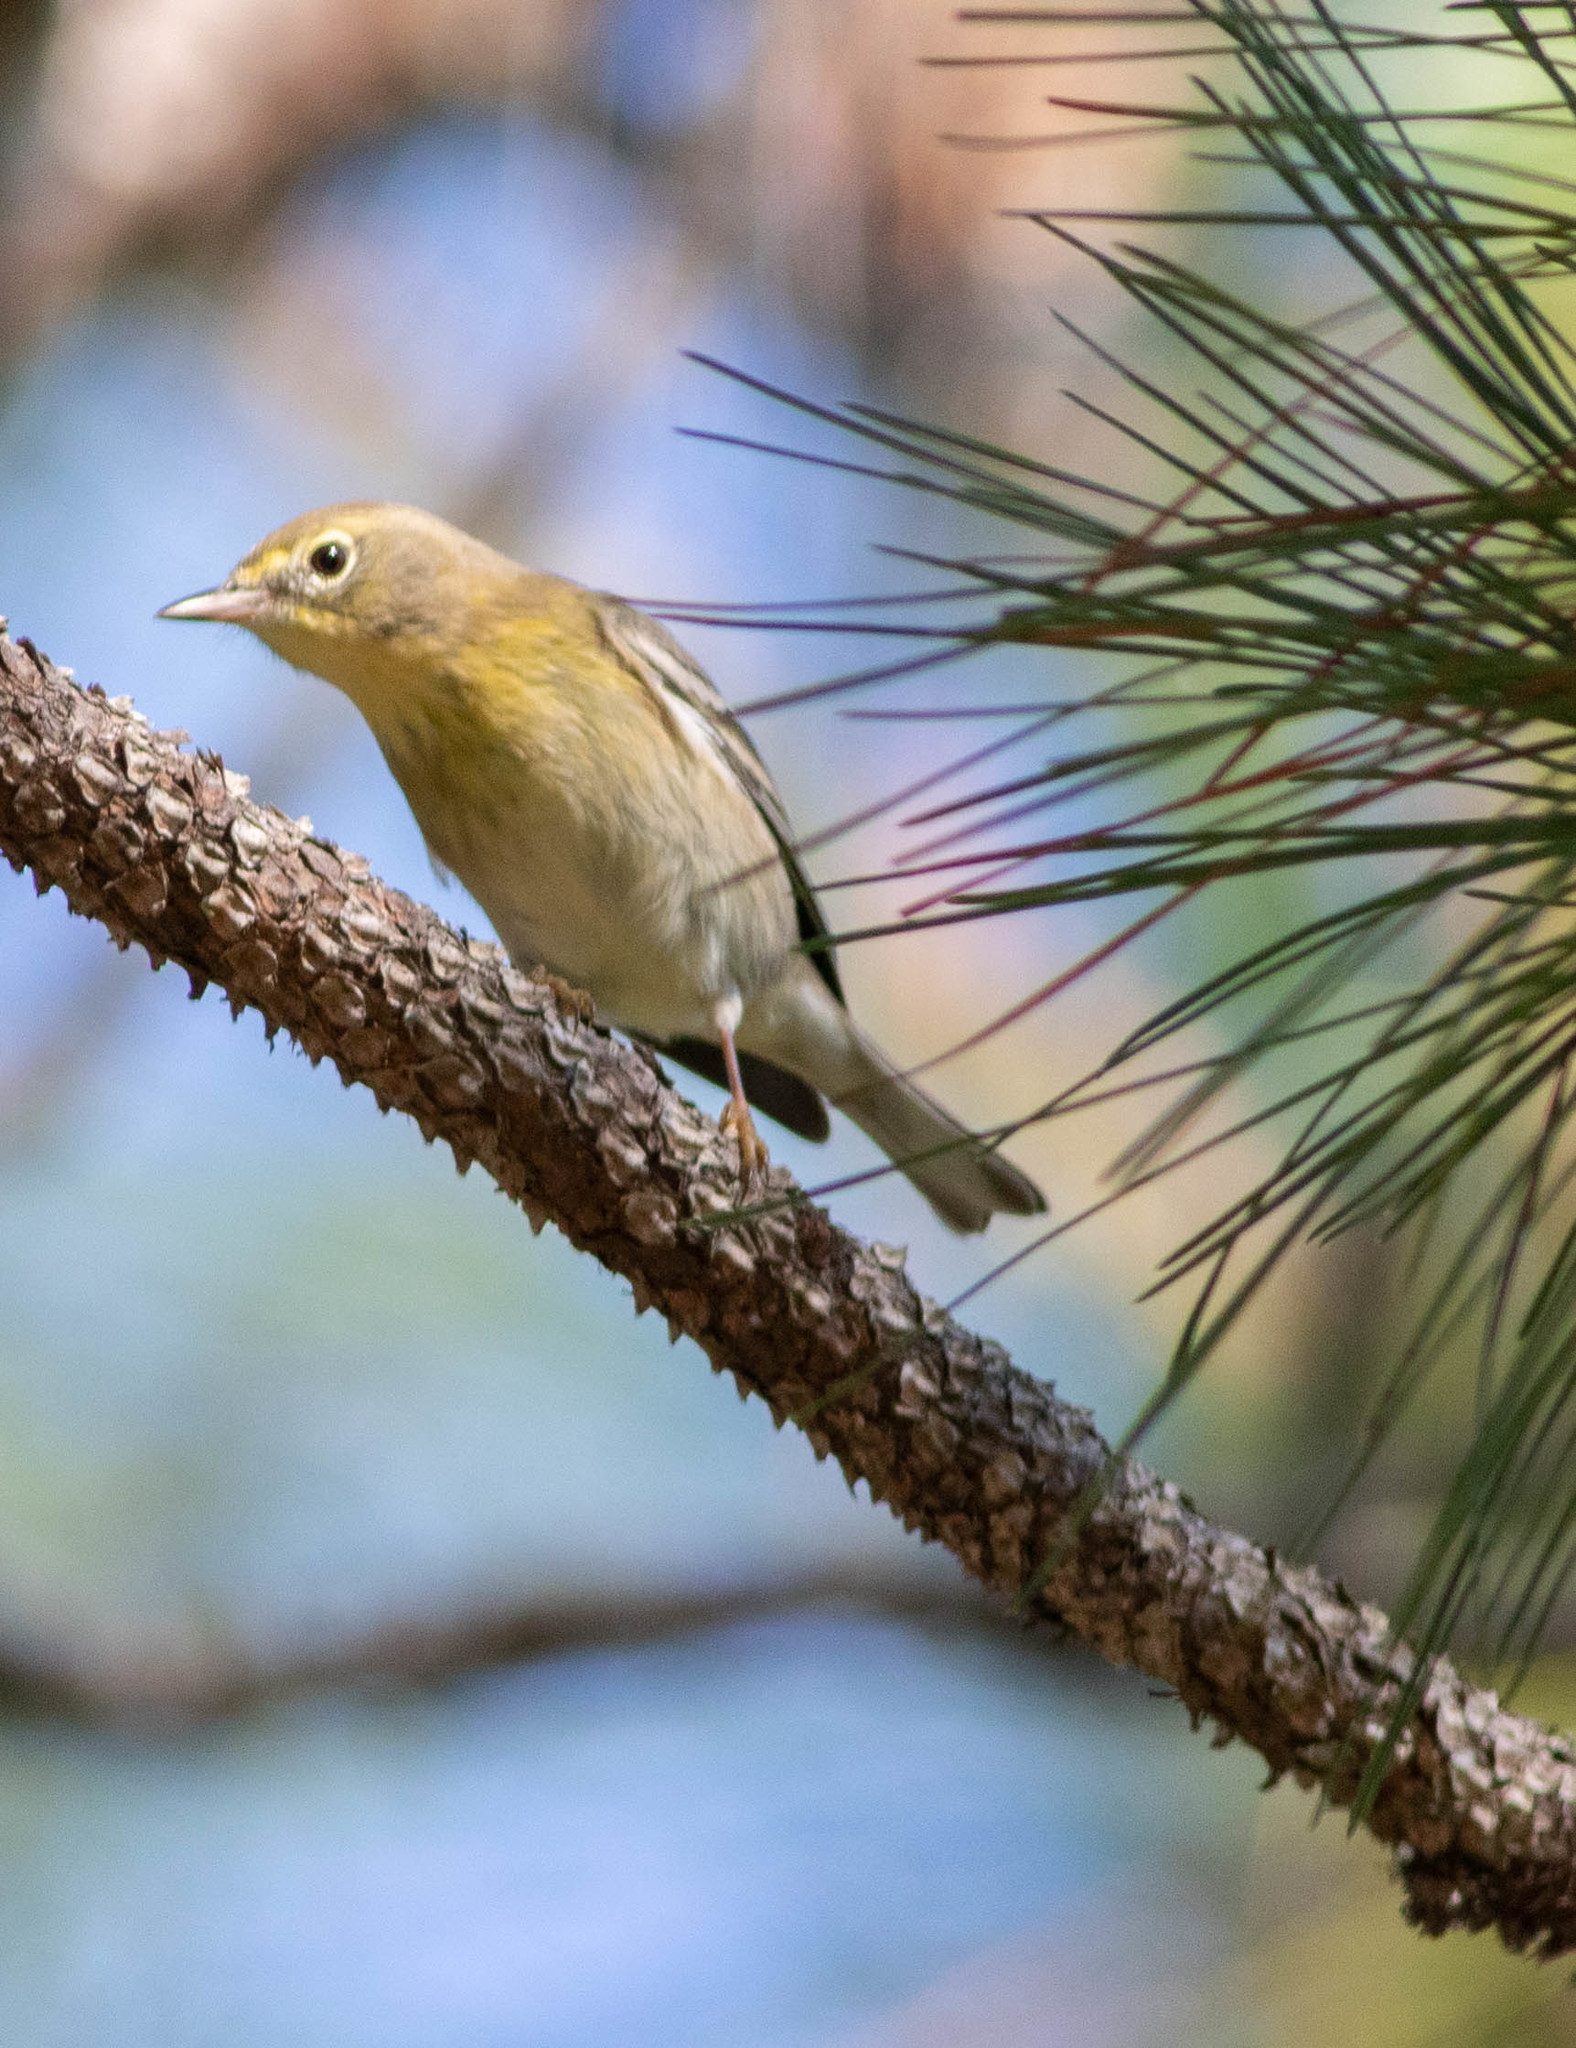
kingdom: Animalia
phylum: Chordata
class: Aves
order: Passeriformes
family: Parulidae
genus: Setophaga
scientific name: Setophaga pinus
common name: Pine warbler
